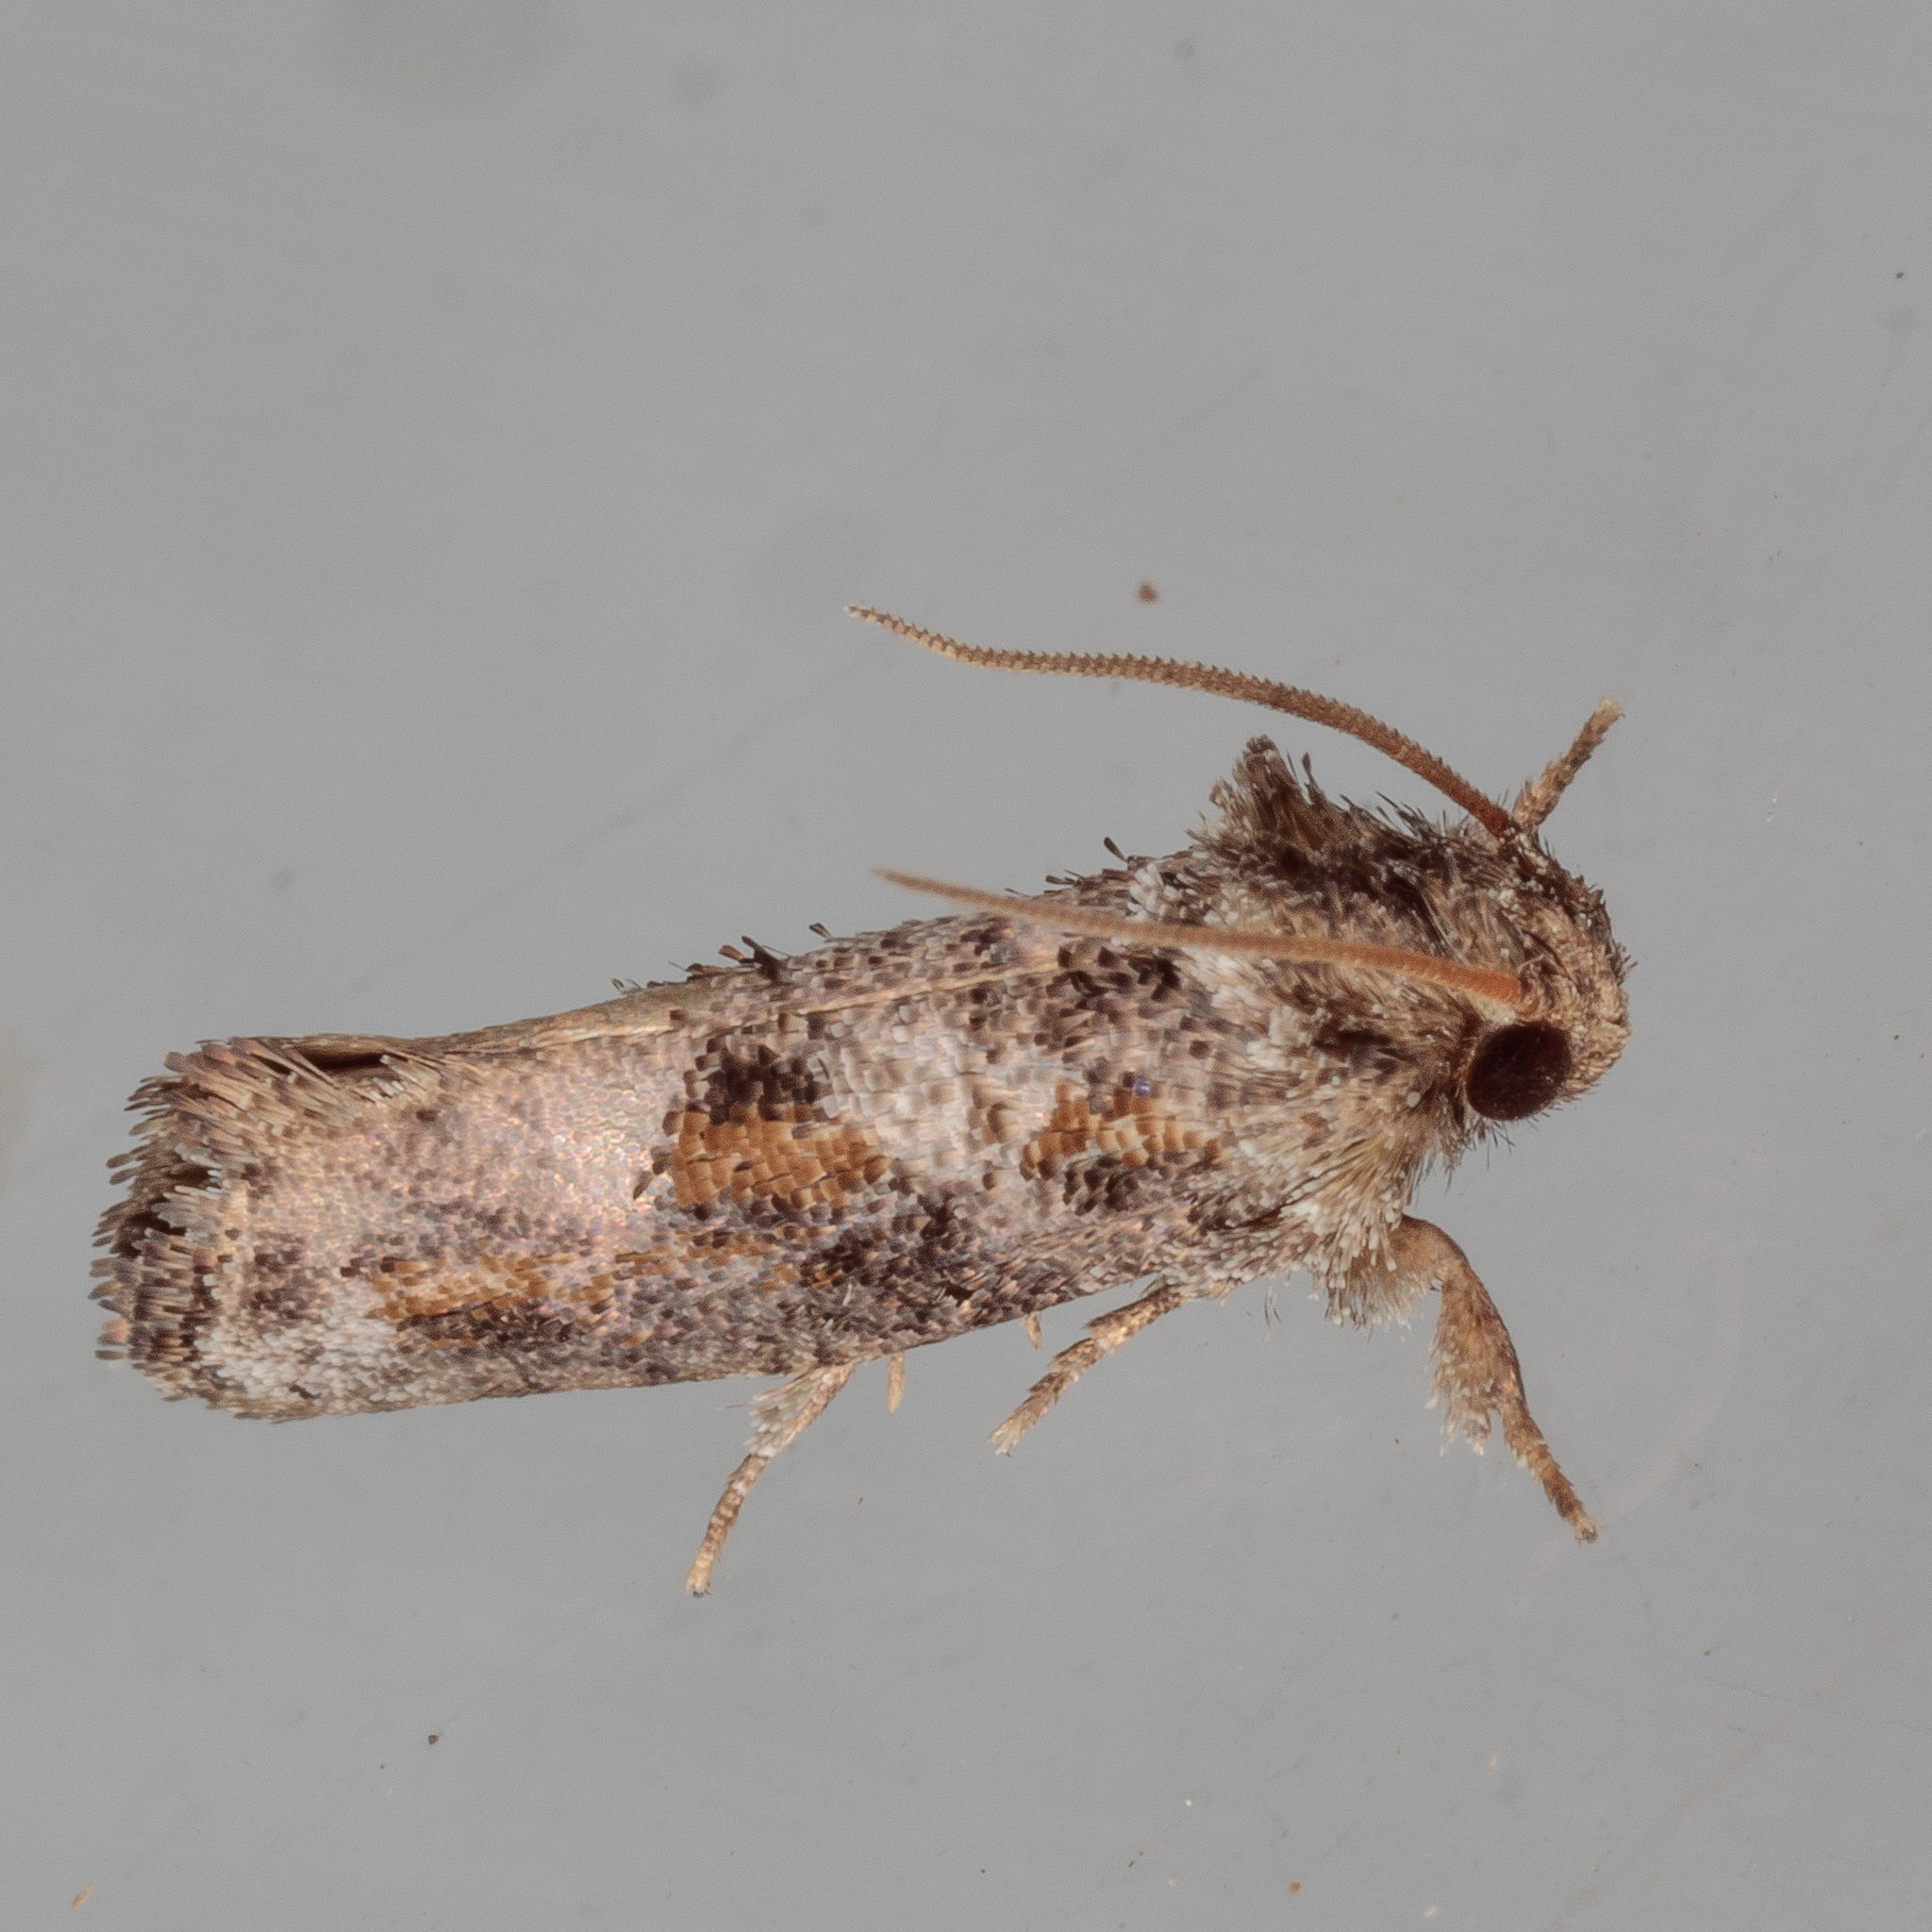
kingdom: Animalia
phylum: Arthropoda
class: Insecta
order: Lepidoptera
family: Tineidae
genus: Acrolophus
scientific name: Acrolophus piger
